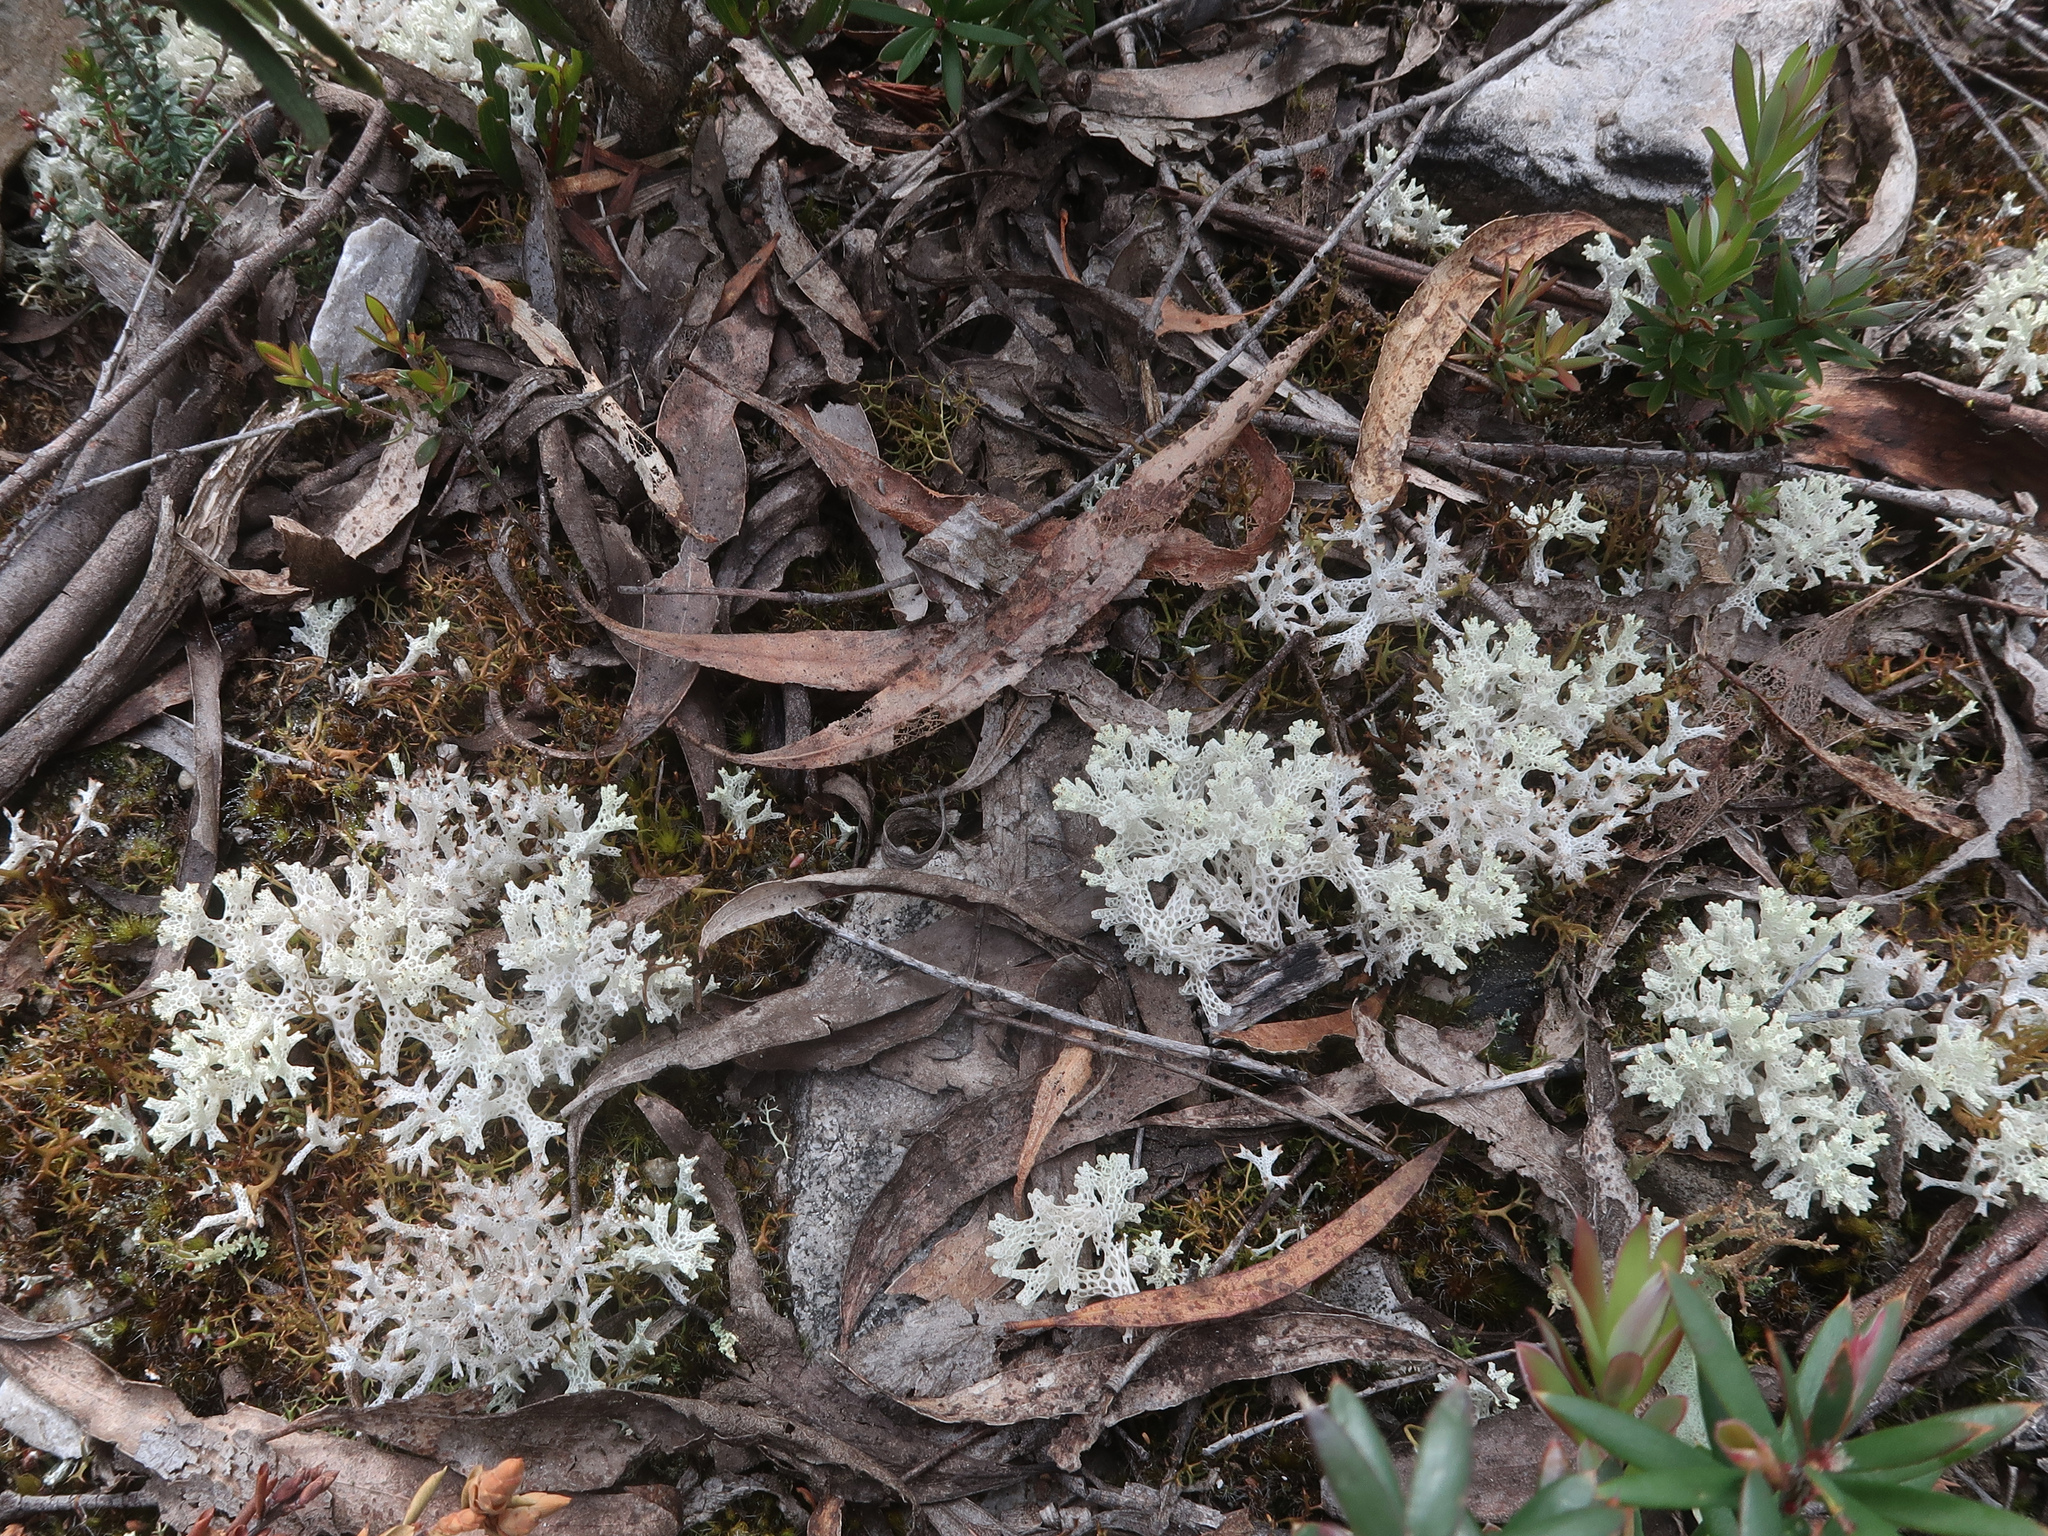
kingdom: Fungi
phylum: Ascomycota
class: Lecanoromycetes
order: Lecanorales
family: Cladoniaceae
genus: Pulchrocladia
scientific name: Pulchrocladia retipora
